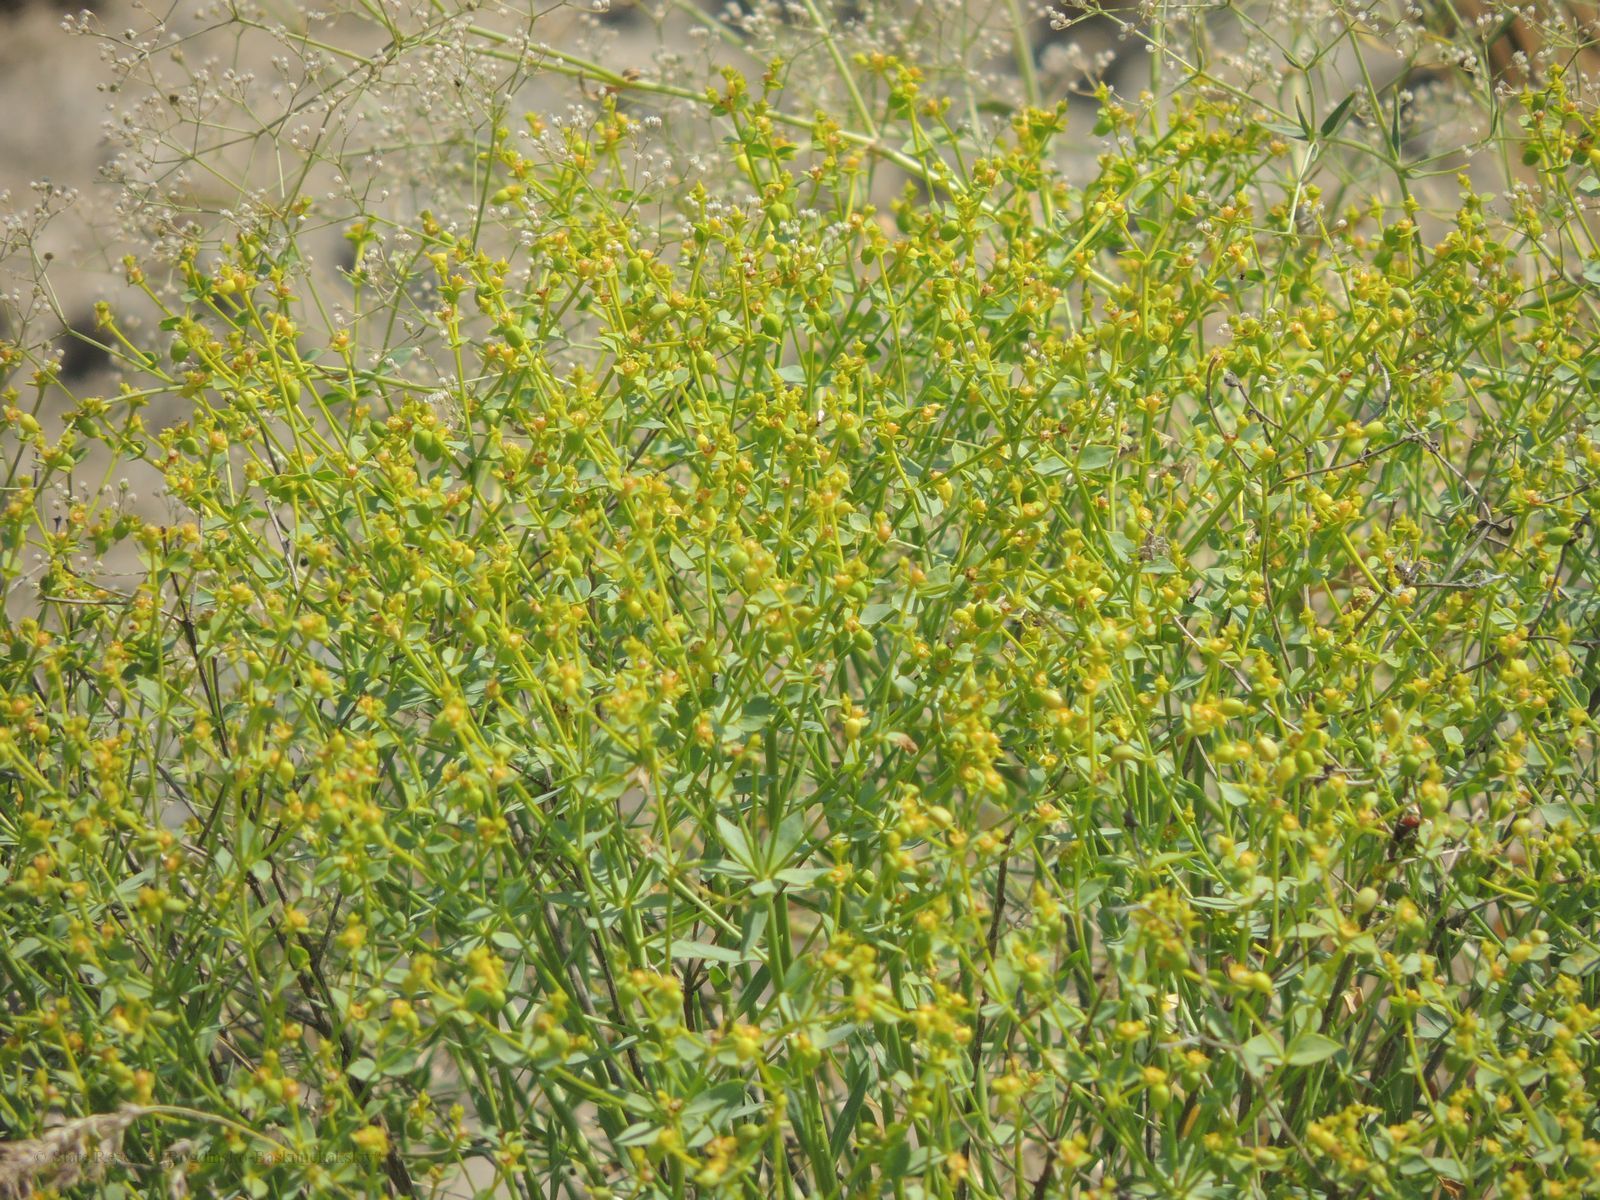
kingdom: Plantae
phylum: Tracheophyta
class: Magnoliopsida
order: Malpighiales
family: Euphorbiaceae
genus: Euphorbia
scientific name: Euphorbia seguieriana
